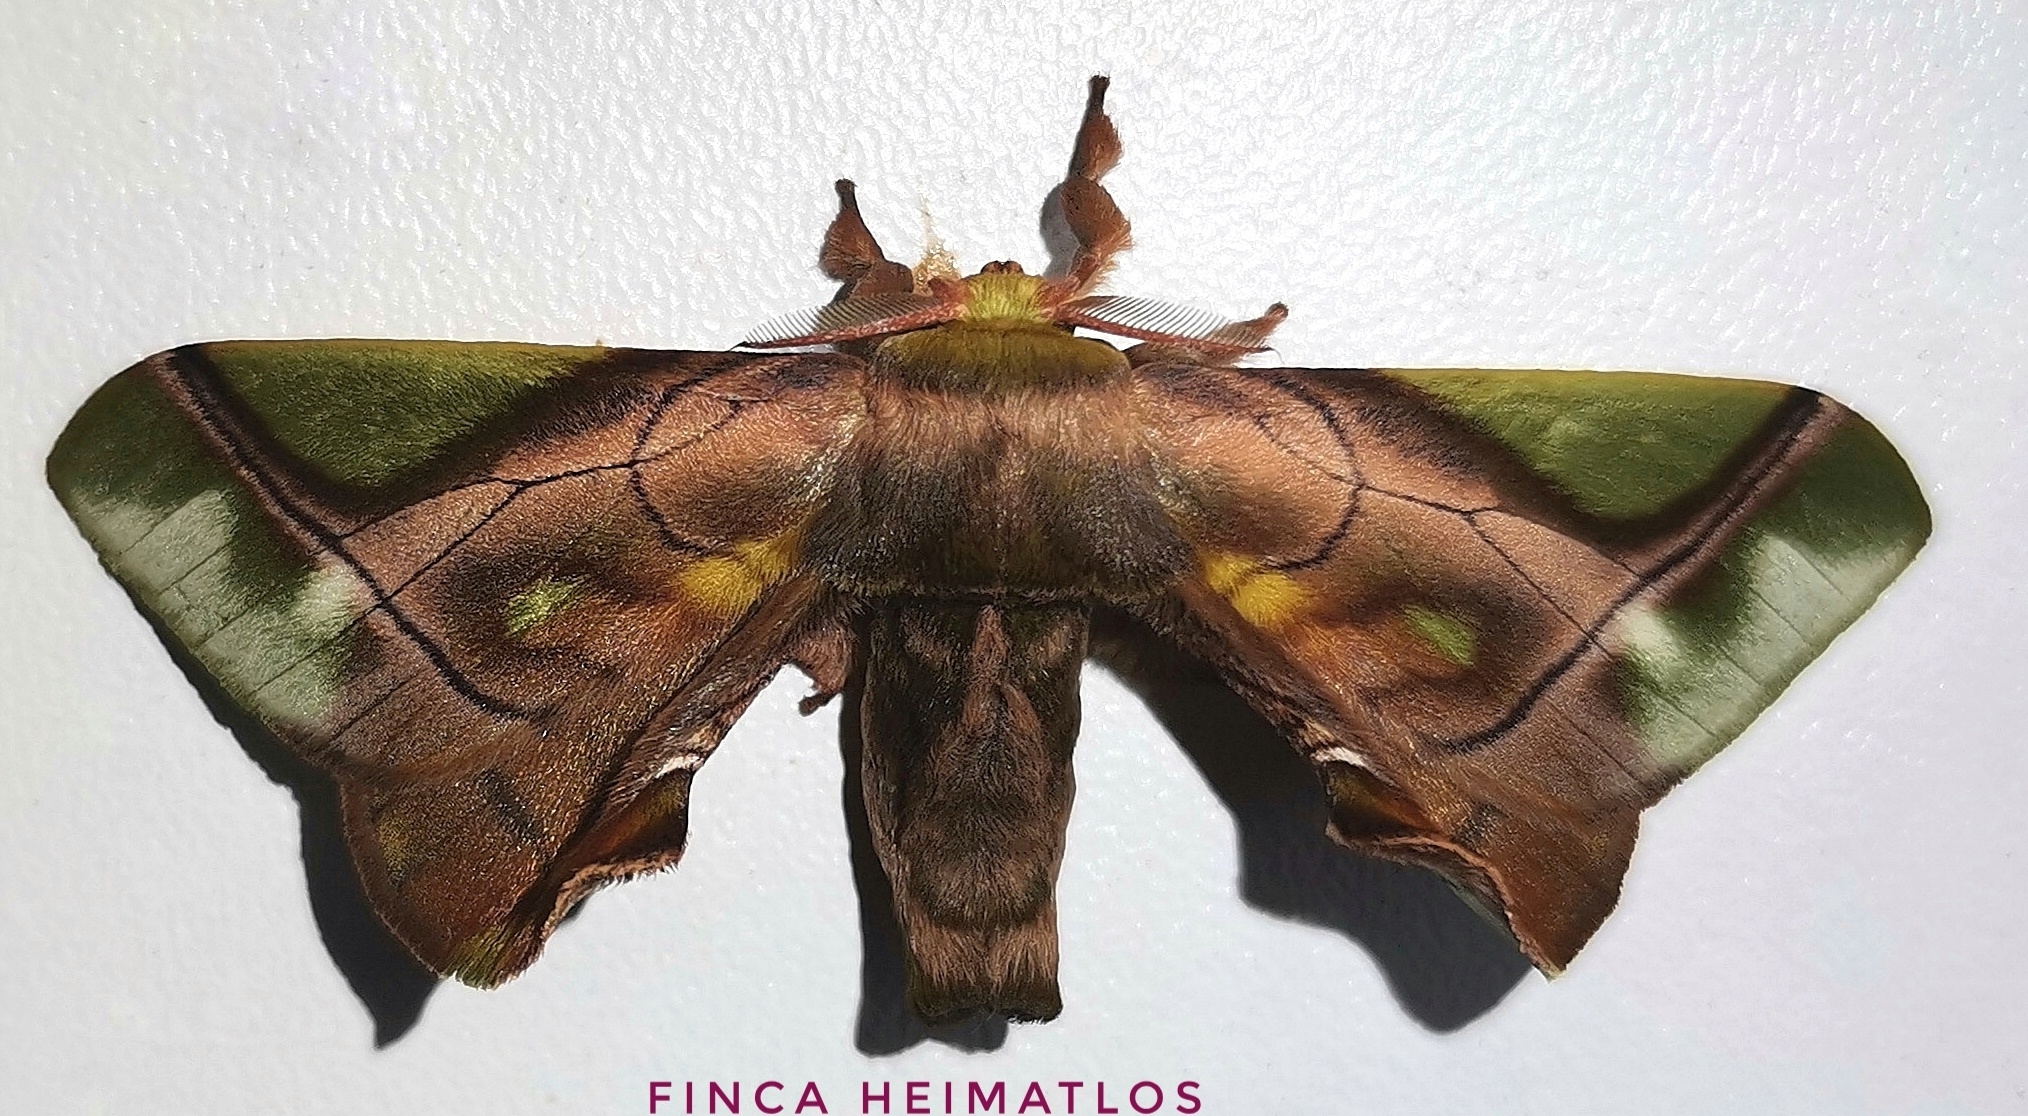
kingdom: Animalia
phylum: Arthropoda
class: Insecta
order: Lepidoptera
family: Bombycidae
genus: Epia
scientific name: Epia muscosa
